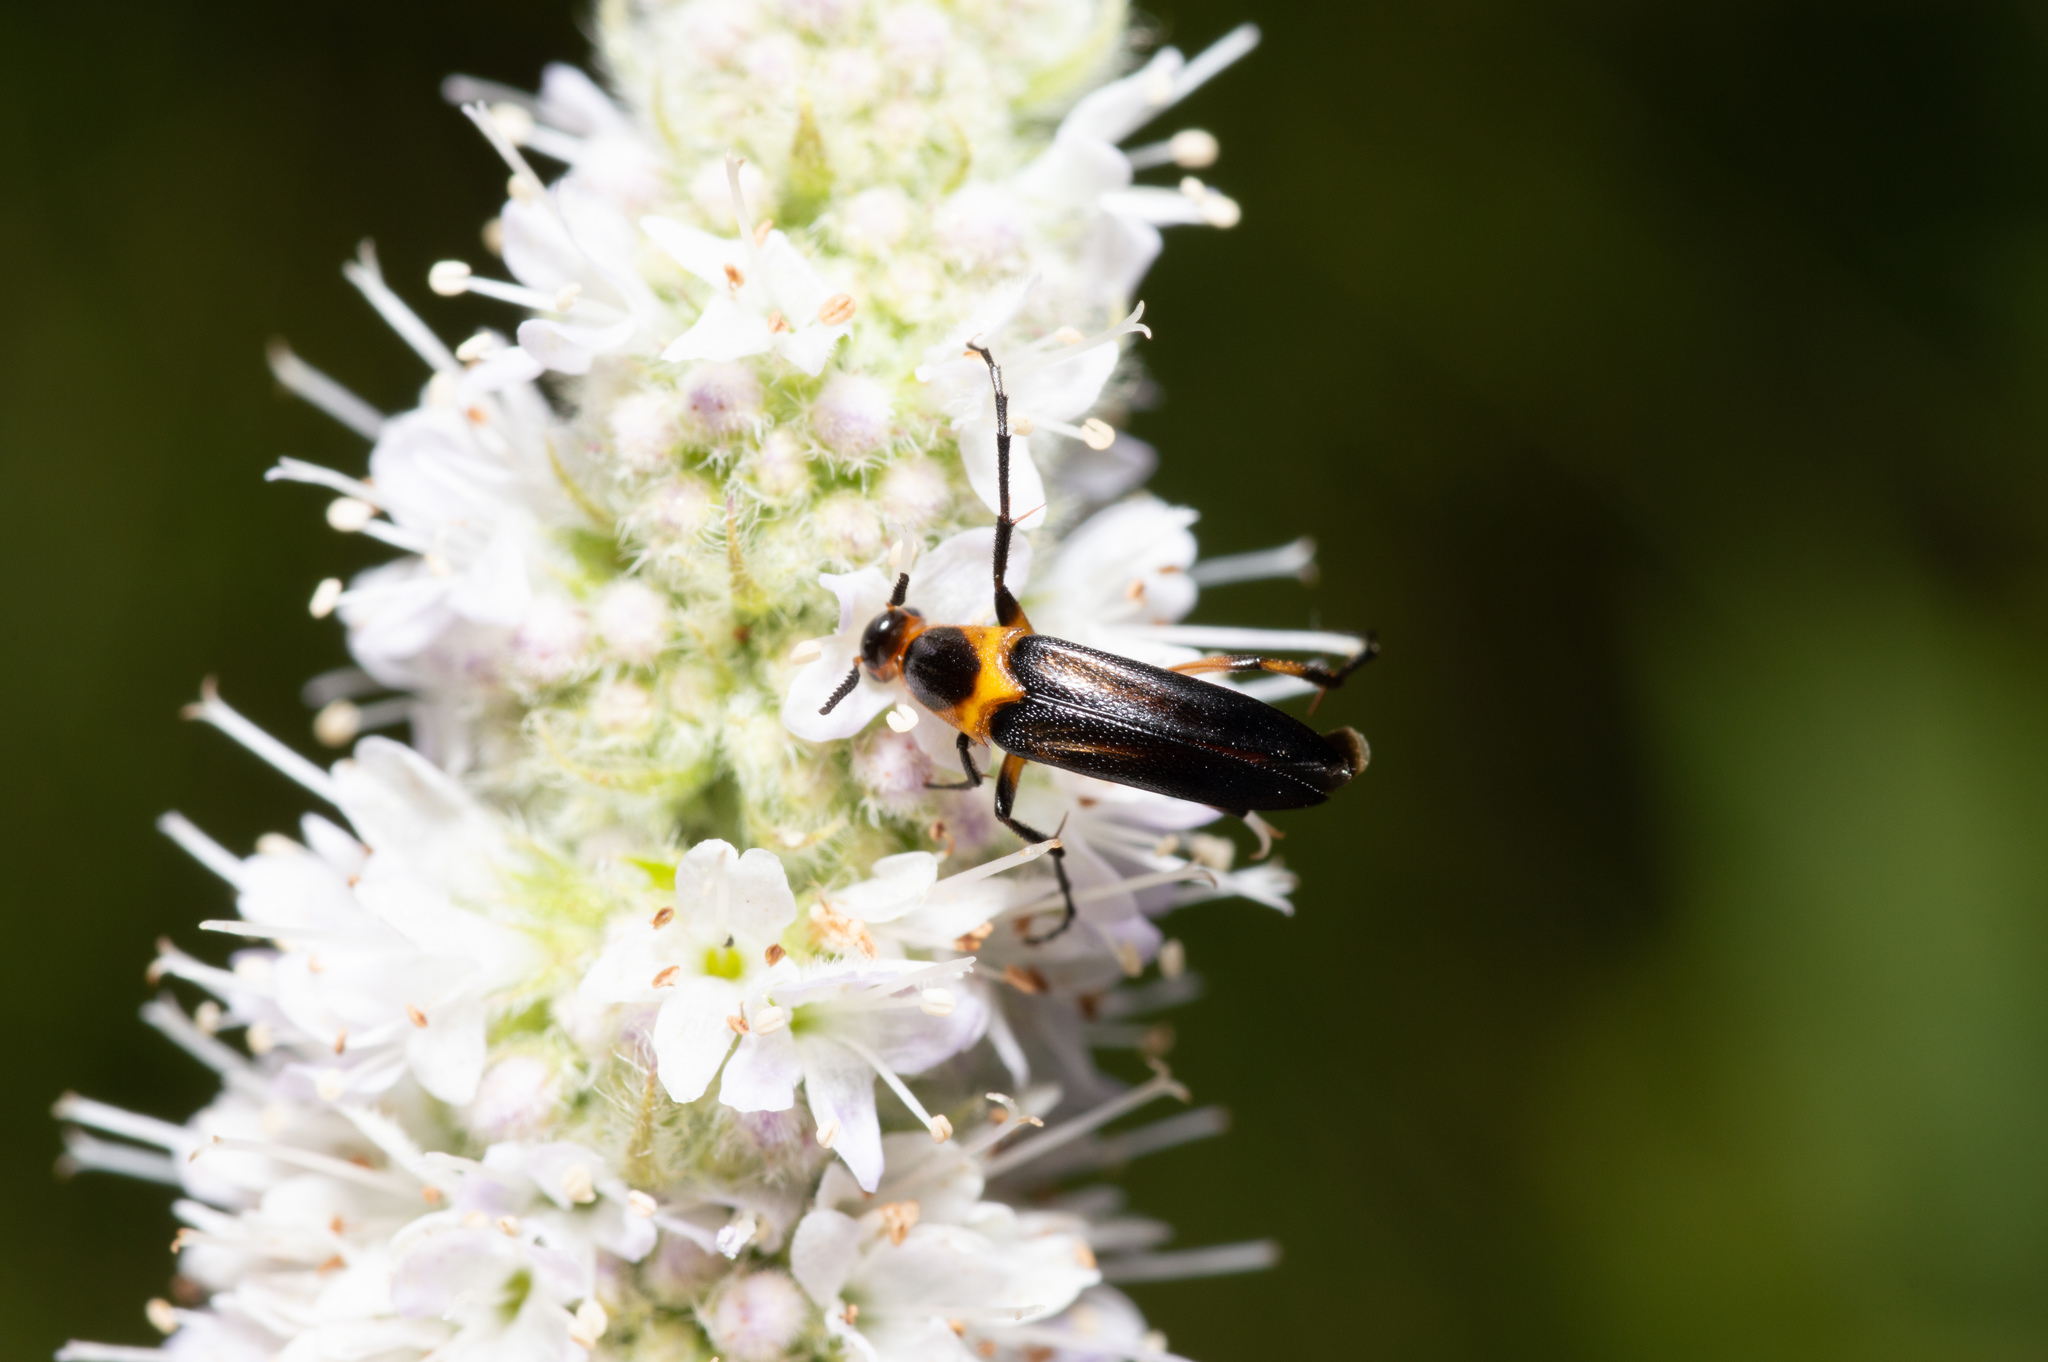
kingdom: Animalia
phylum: Arthropoda
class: Insecta
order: Coleoptera
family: Ripiphoridae
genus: Macrosiagon
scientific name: Macrosiagon limbatum
